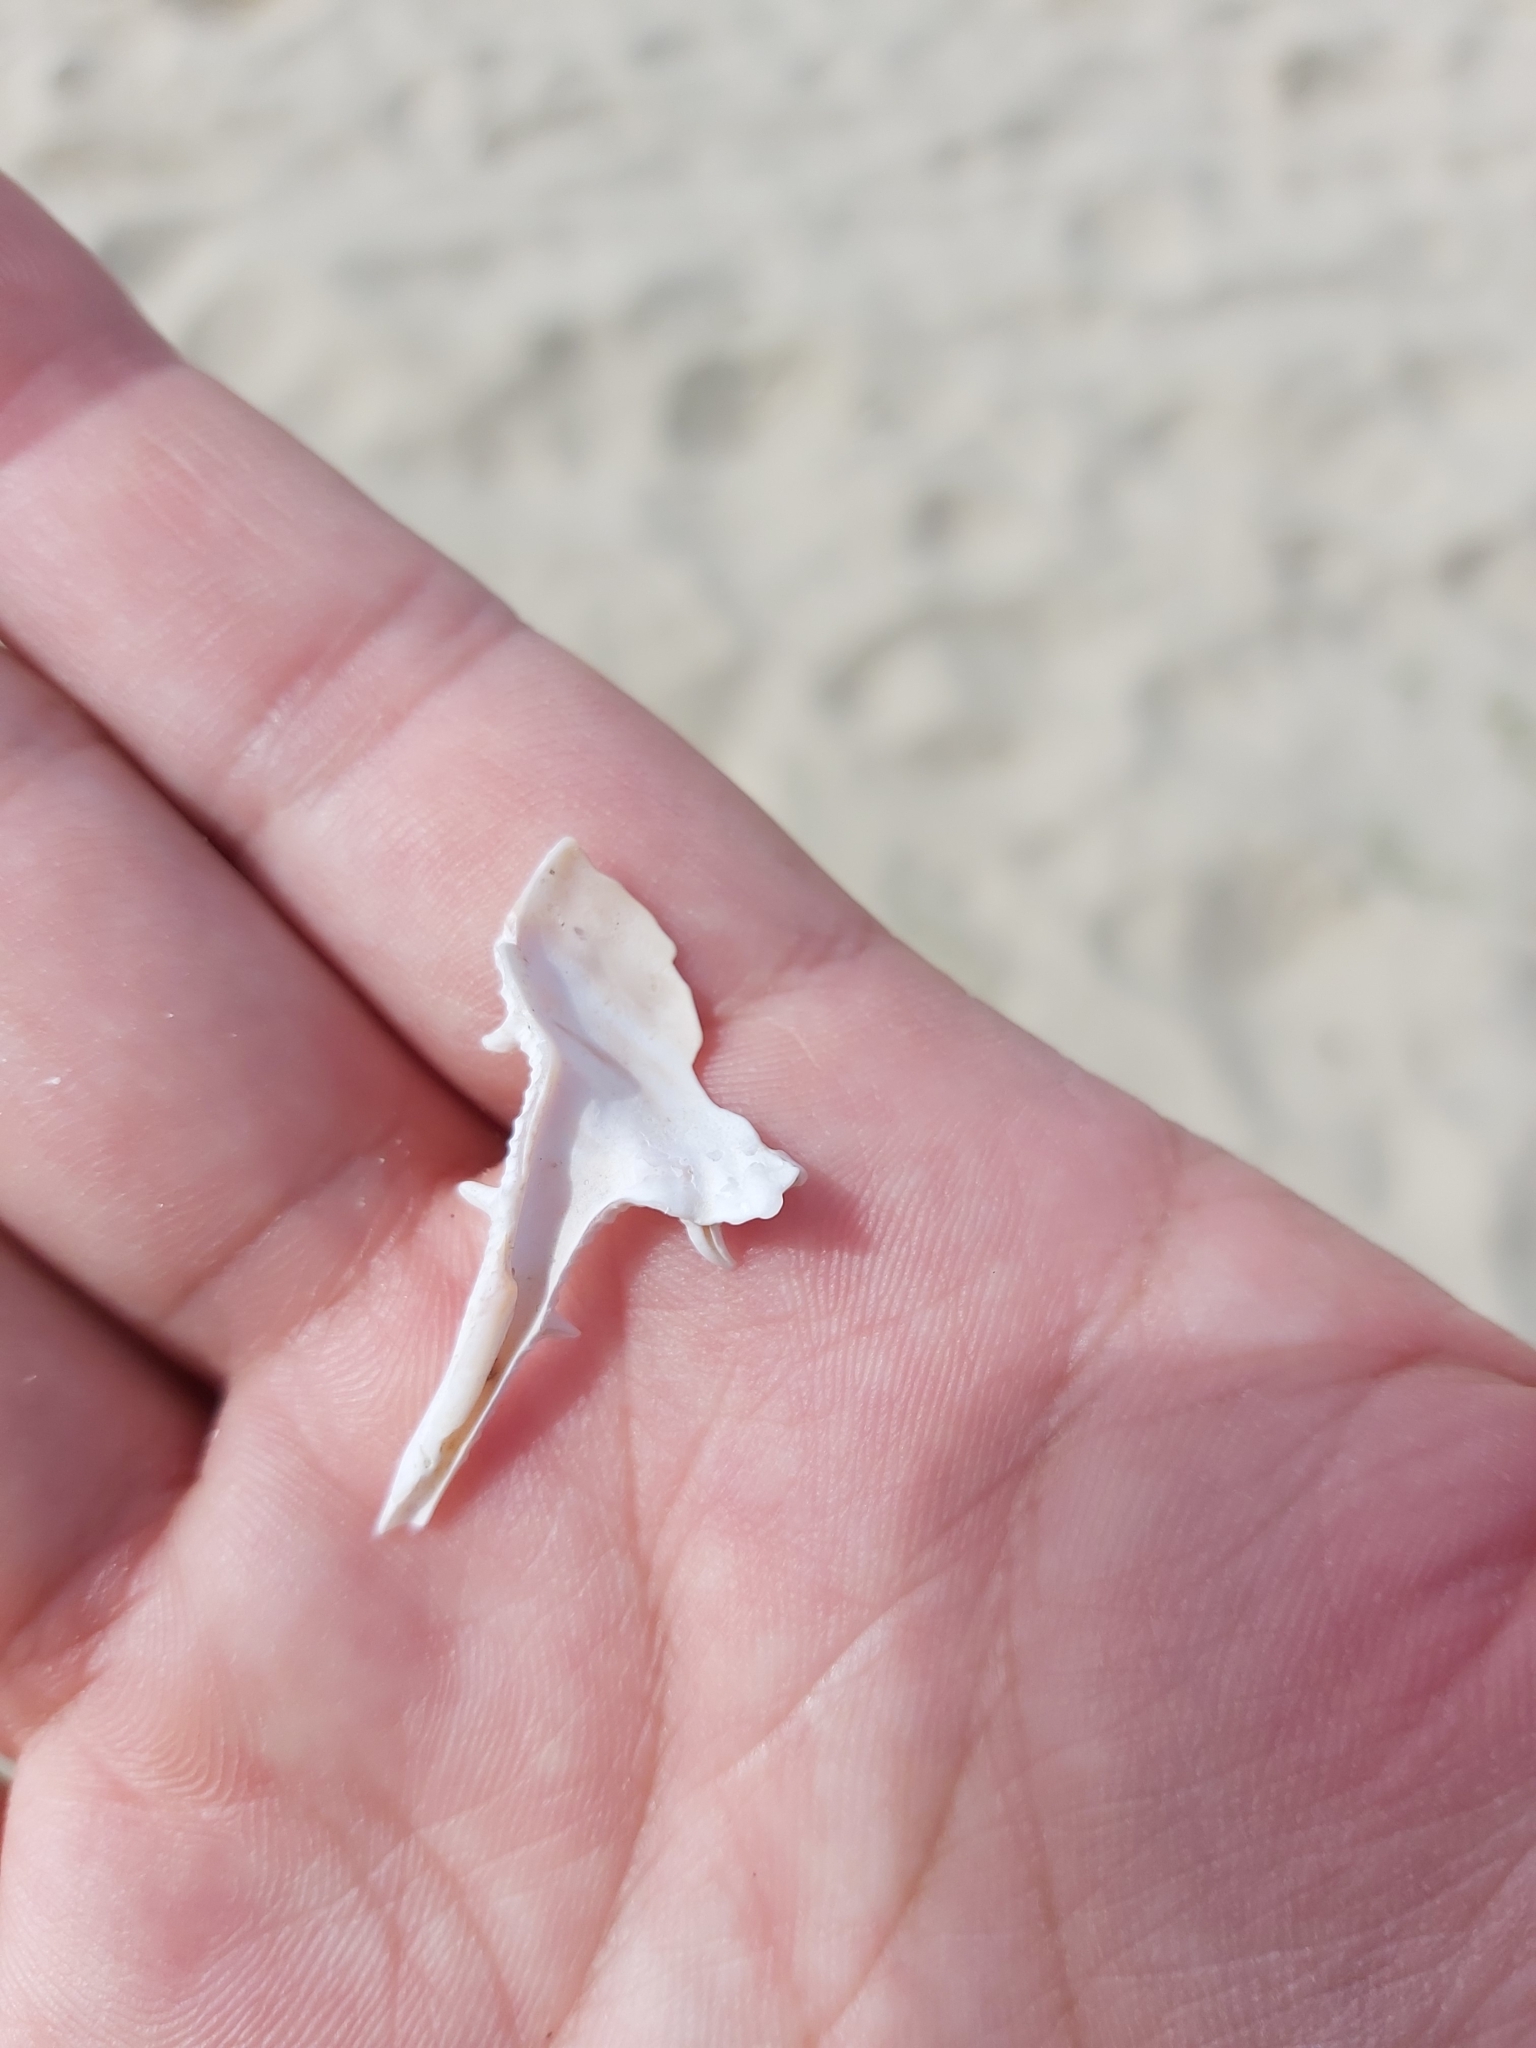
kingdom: Animalia
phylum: Mollusca
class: Gastropoda
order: Neogastropoda
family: Muricidae
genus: Murex
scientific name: Murex brevispina
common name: Brevispined murex
